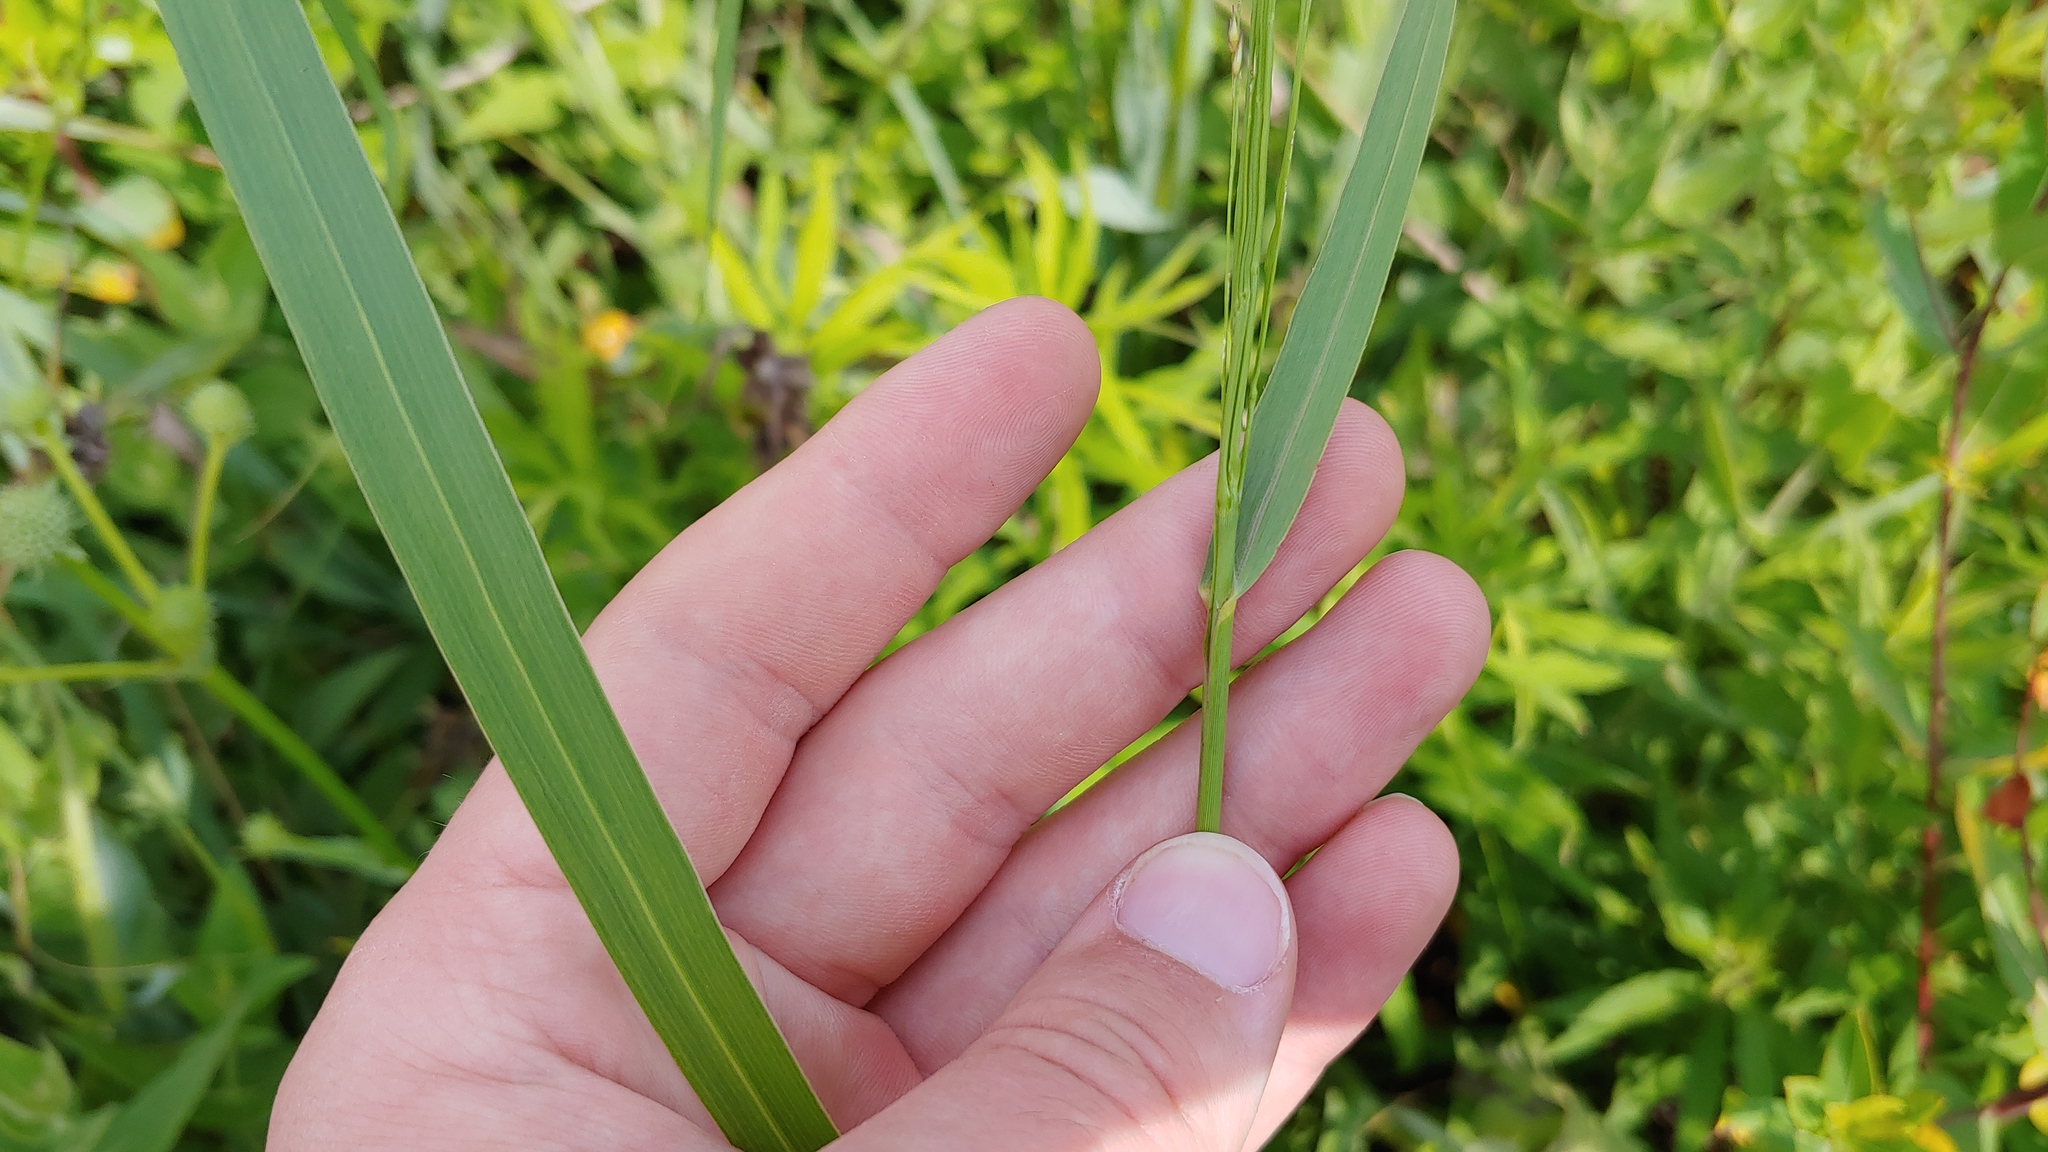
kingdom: Plantae
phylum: Tracheophyta
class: Liliopsida
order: Poales
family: Poaceae
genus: Panicum
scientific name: Panicum virgatum
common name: Switchgrass
